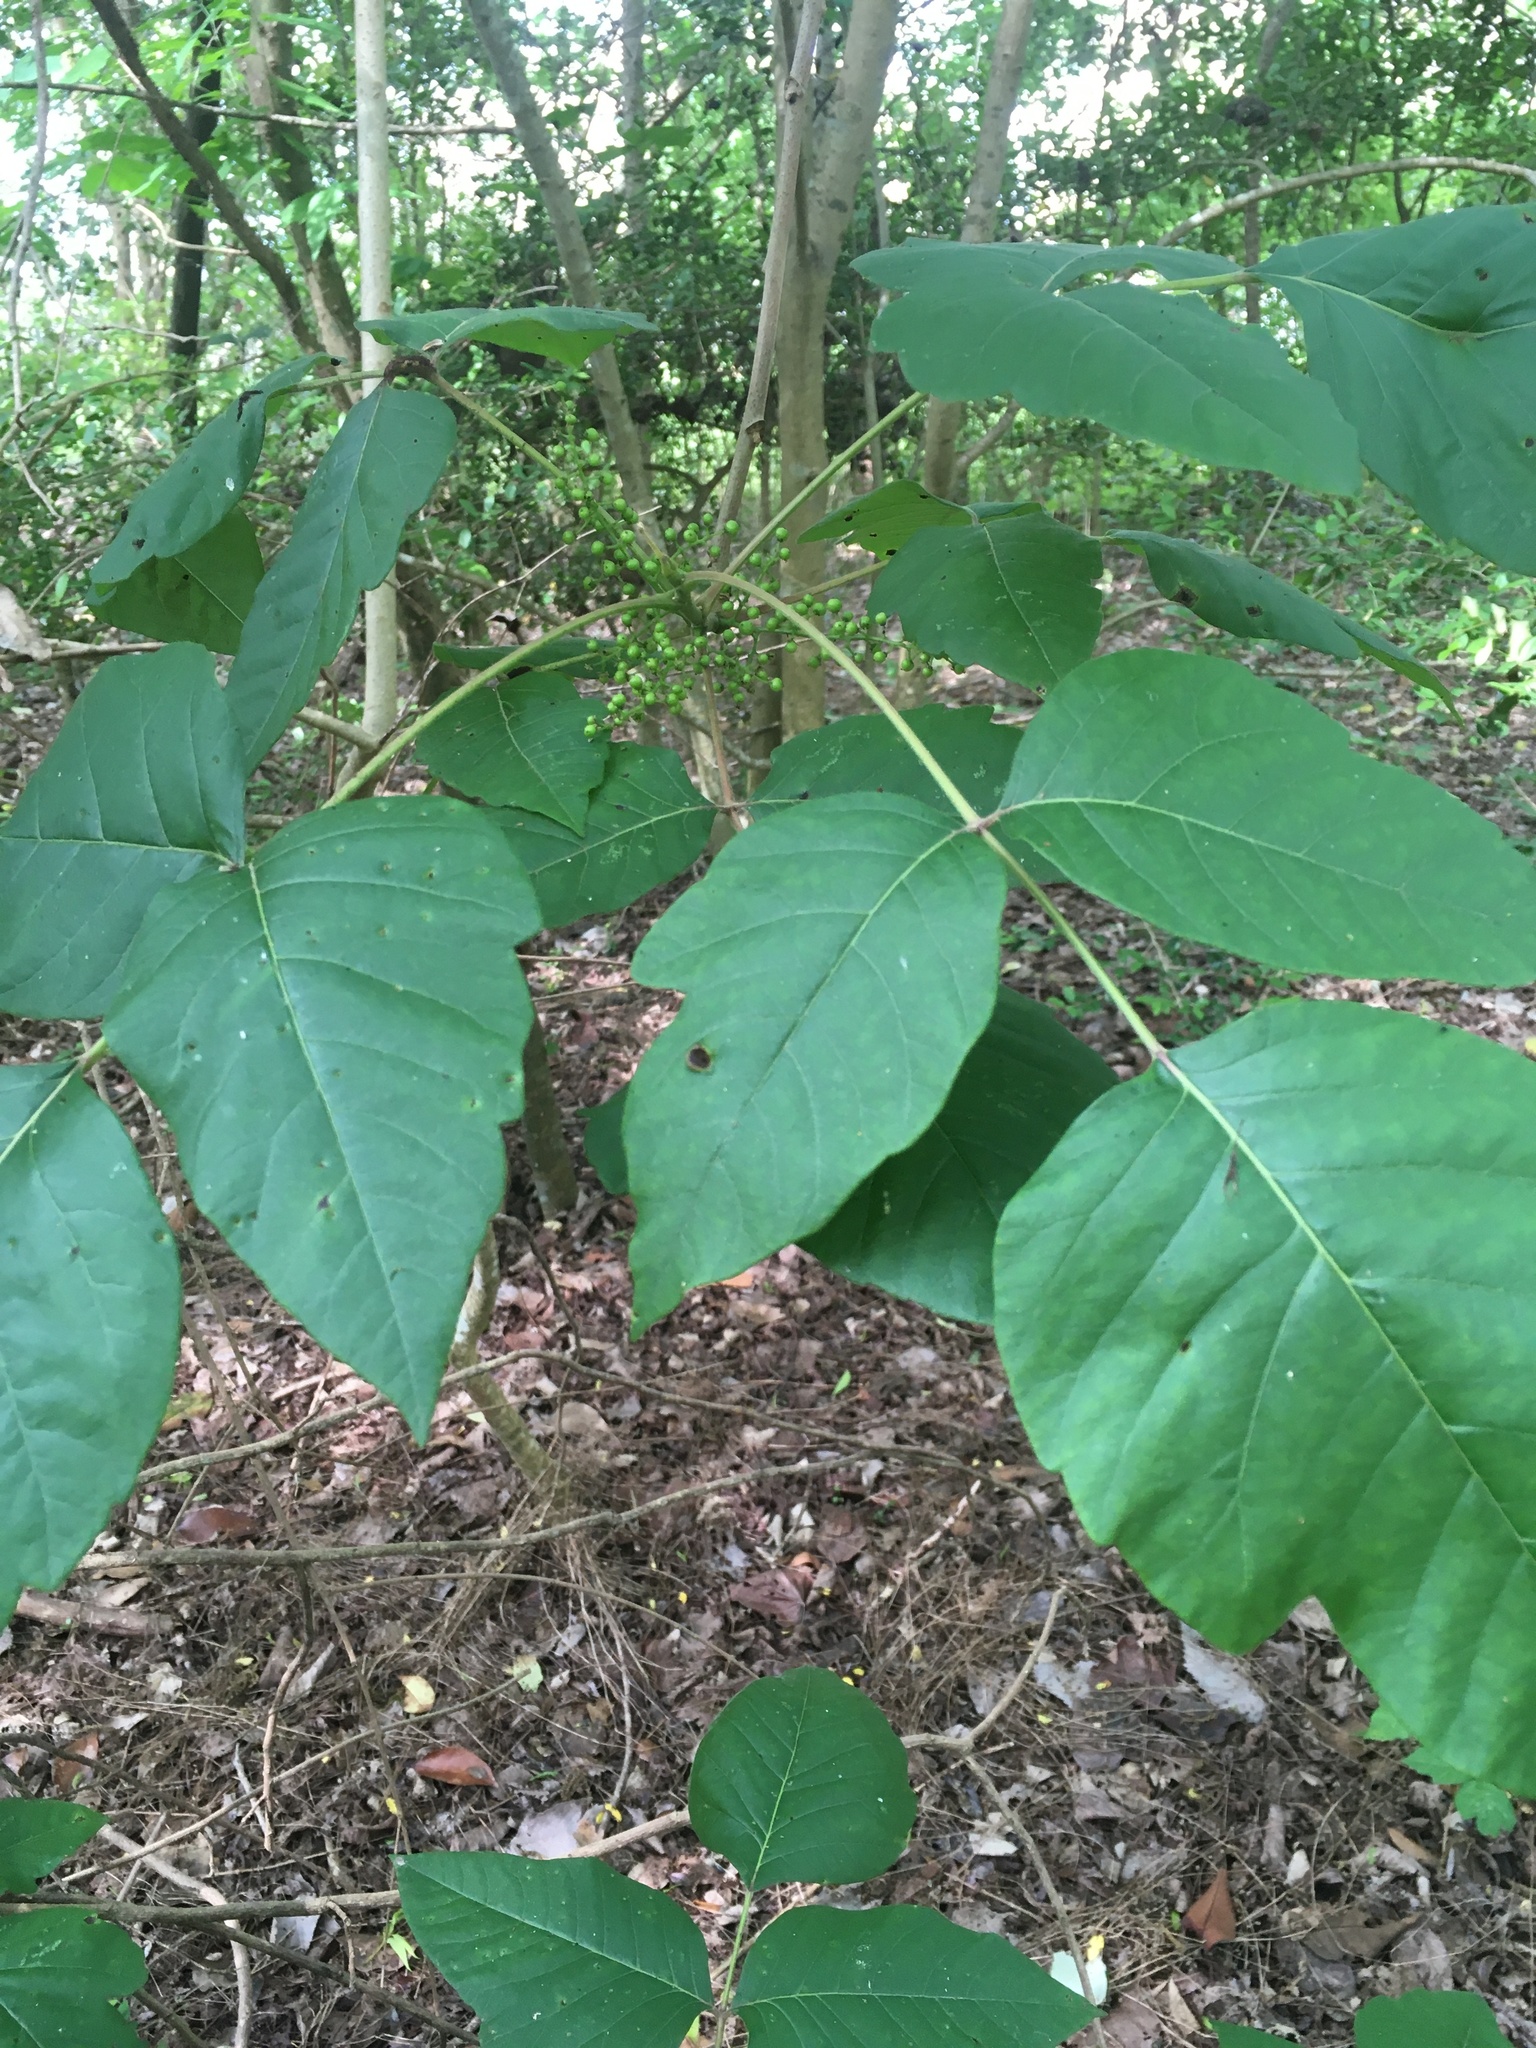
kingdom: Plantae
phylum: Tracheophyta
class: Magnoliopsida
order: Sapindales
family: Anacardiaceae
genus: Toxicodendron
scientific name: Toxicodendron radicans
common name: Poison ivy
